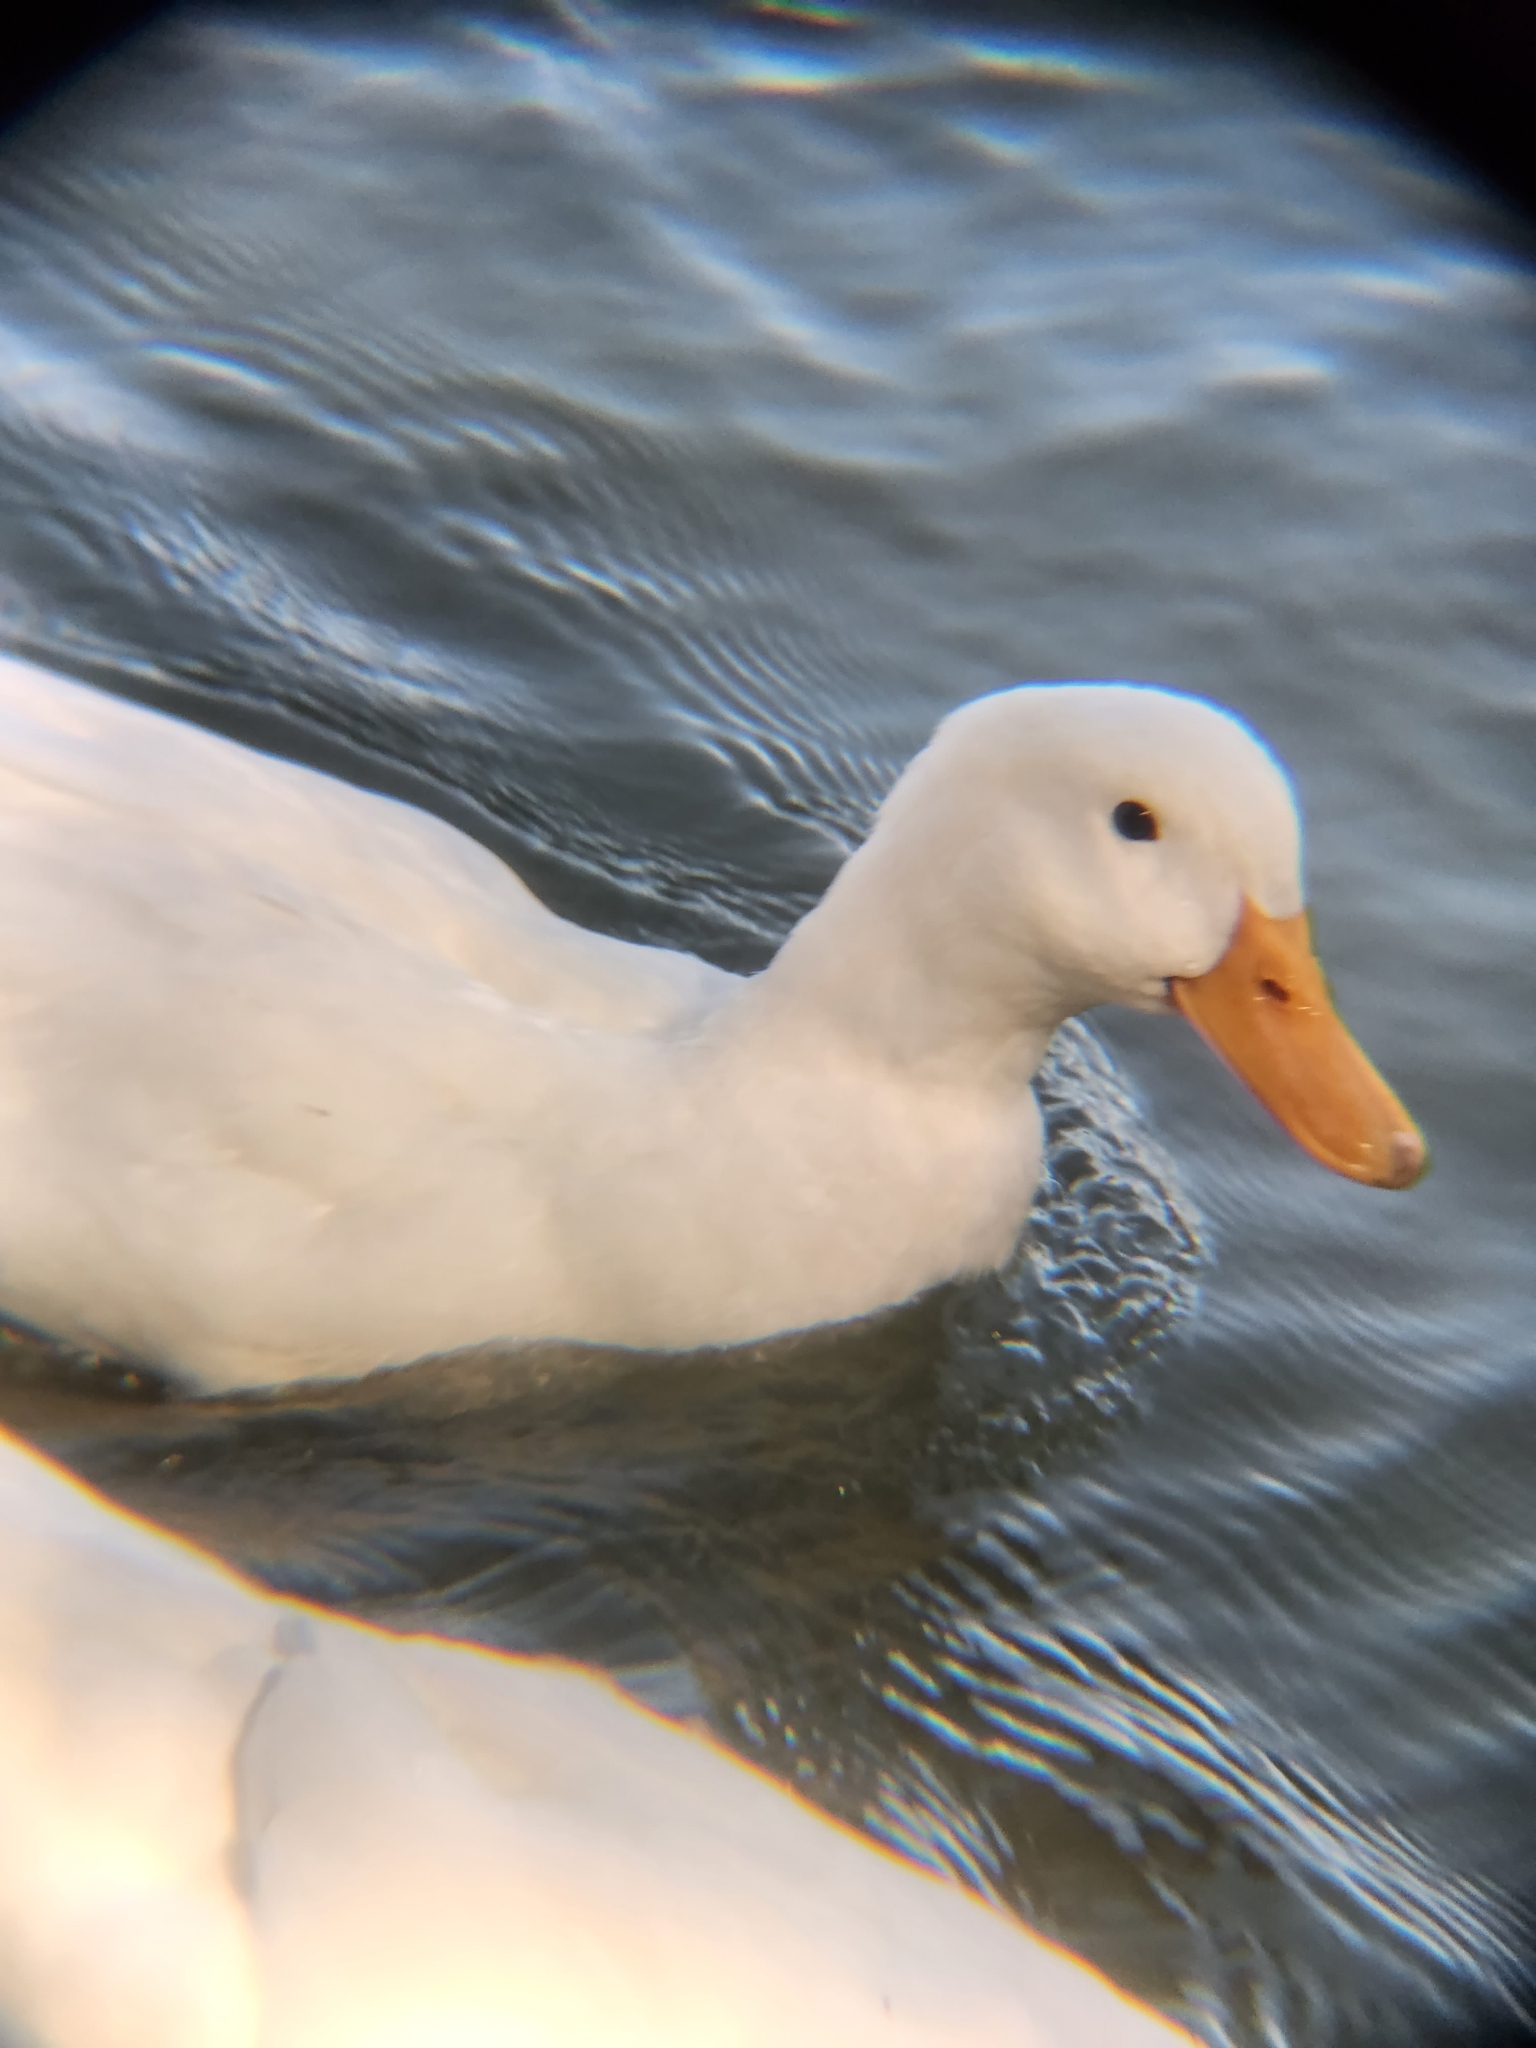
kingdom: Animalia
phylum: Chordata
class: Aves
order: Anseriformes
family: Anatidae
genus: Anas
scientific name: Anas platyrhynchos
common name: Mallard
